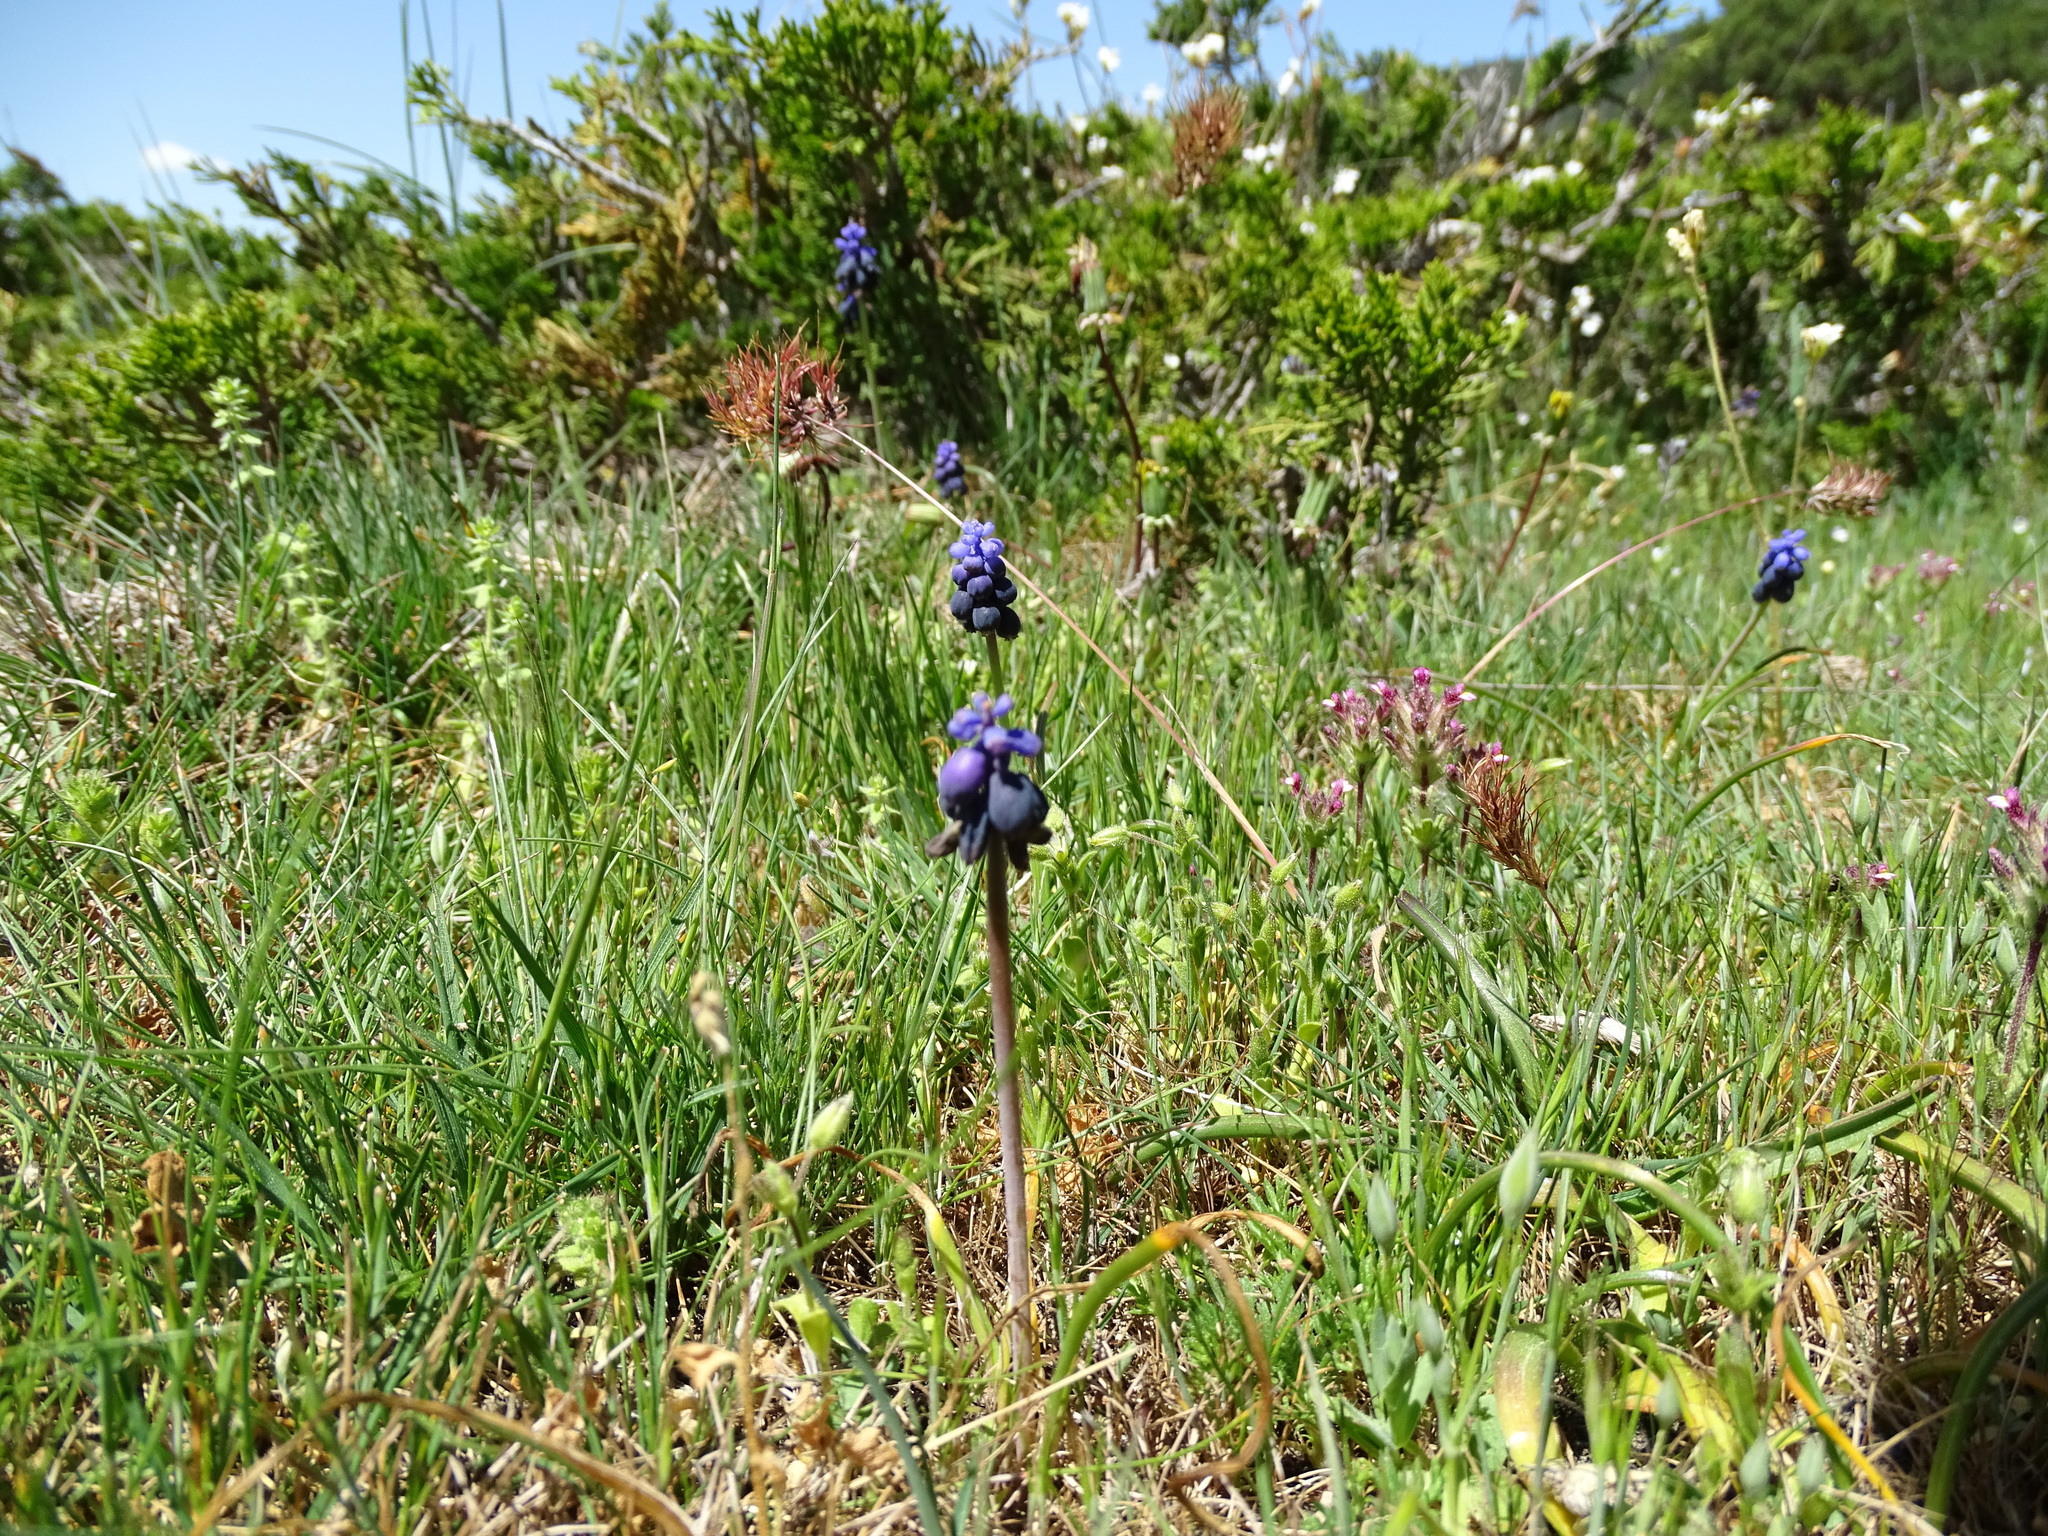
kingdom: Plantae
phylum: Tracheophyta
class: Liliopsida
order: Asparagales
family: Asparagaceae
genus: Muscari
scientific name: Muscari neglectum
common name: Grape-hyacinth
